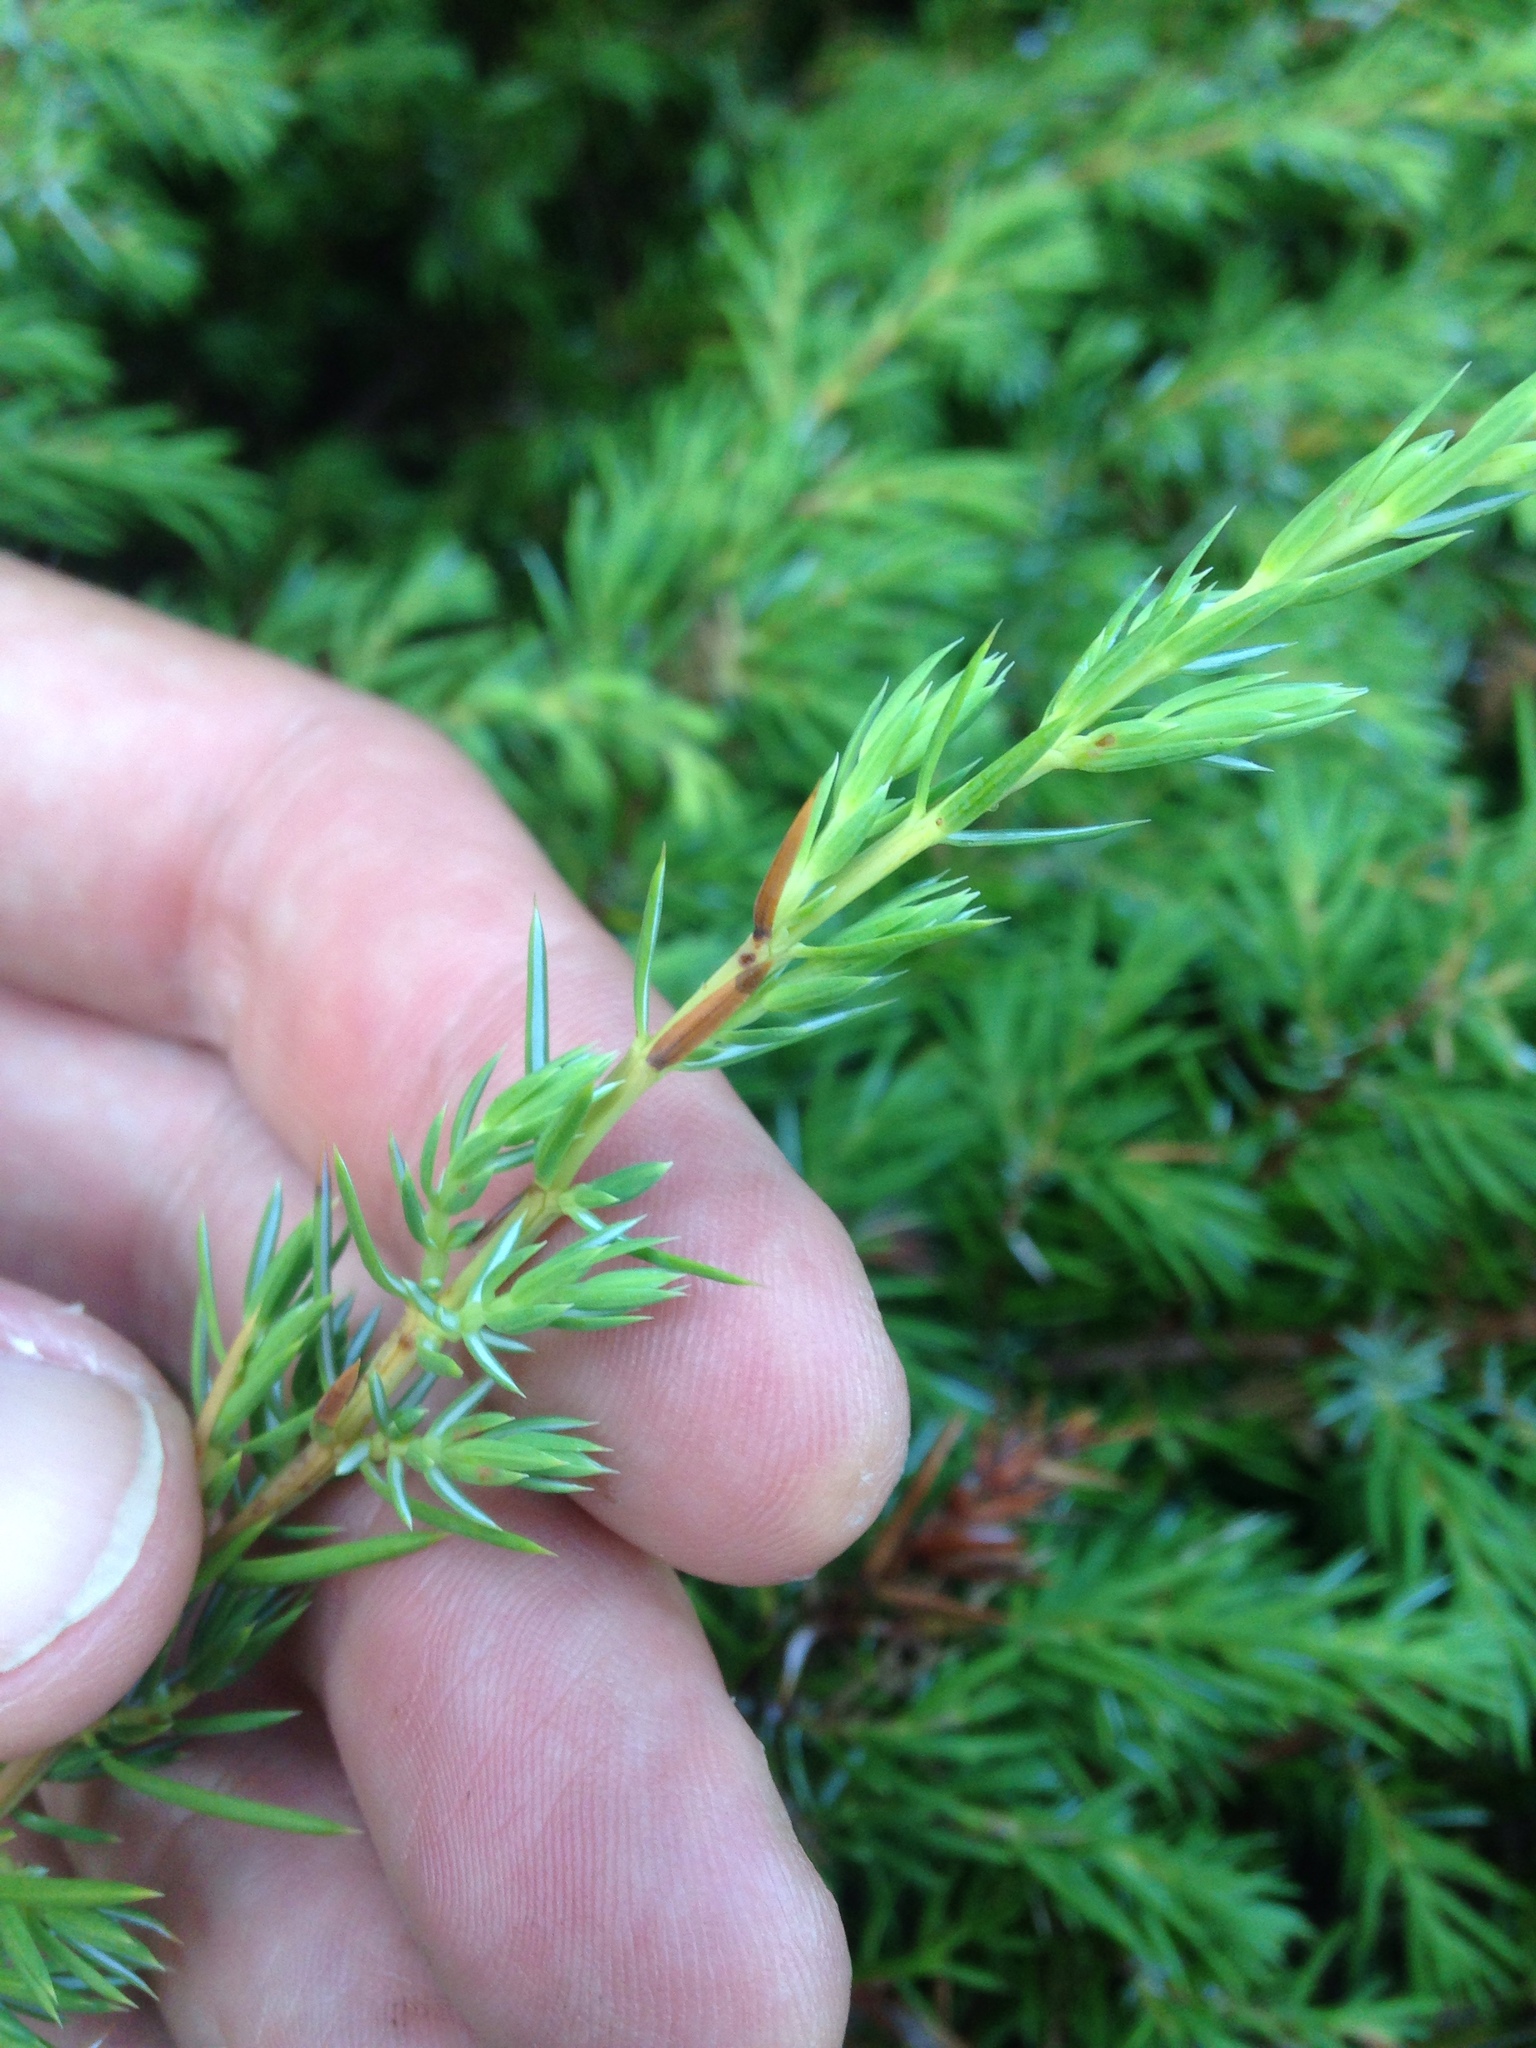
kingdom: Plantae
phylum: Tracheophyta
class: Pinopsida
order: Pinales
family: Cupressaceae
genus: Juniperus
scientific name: Juniperus communis
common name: Common juniper
